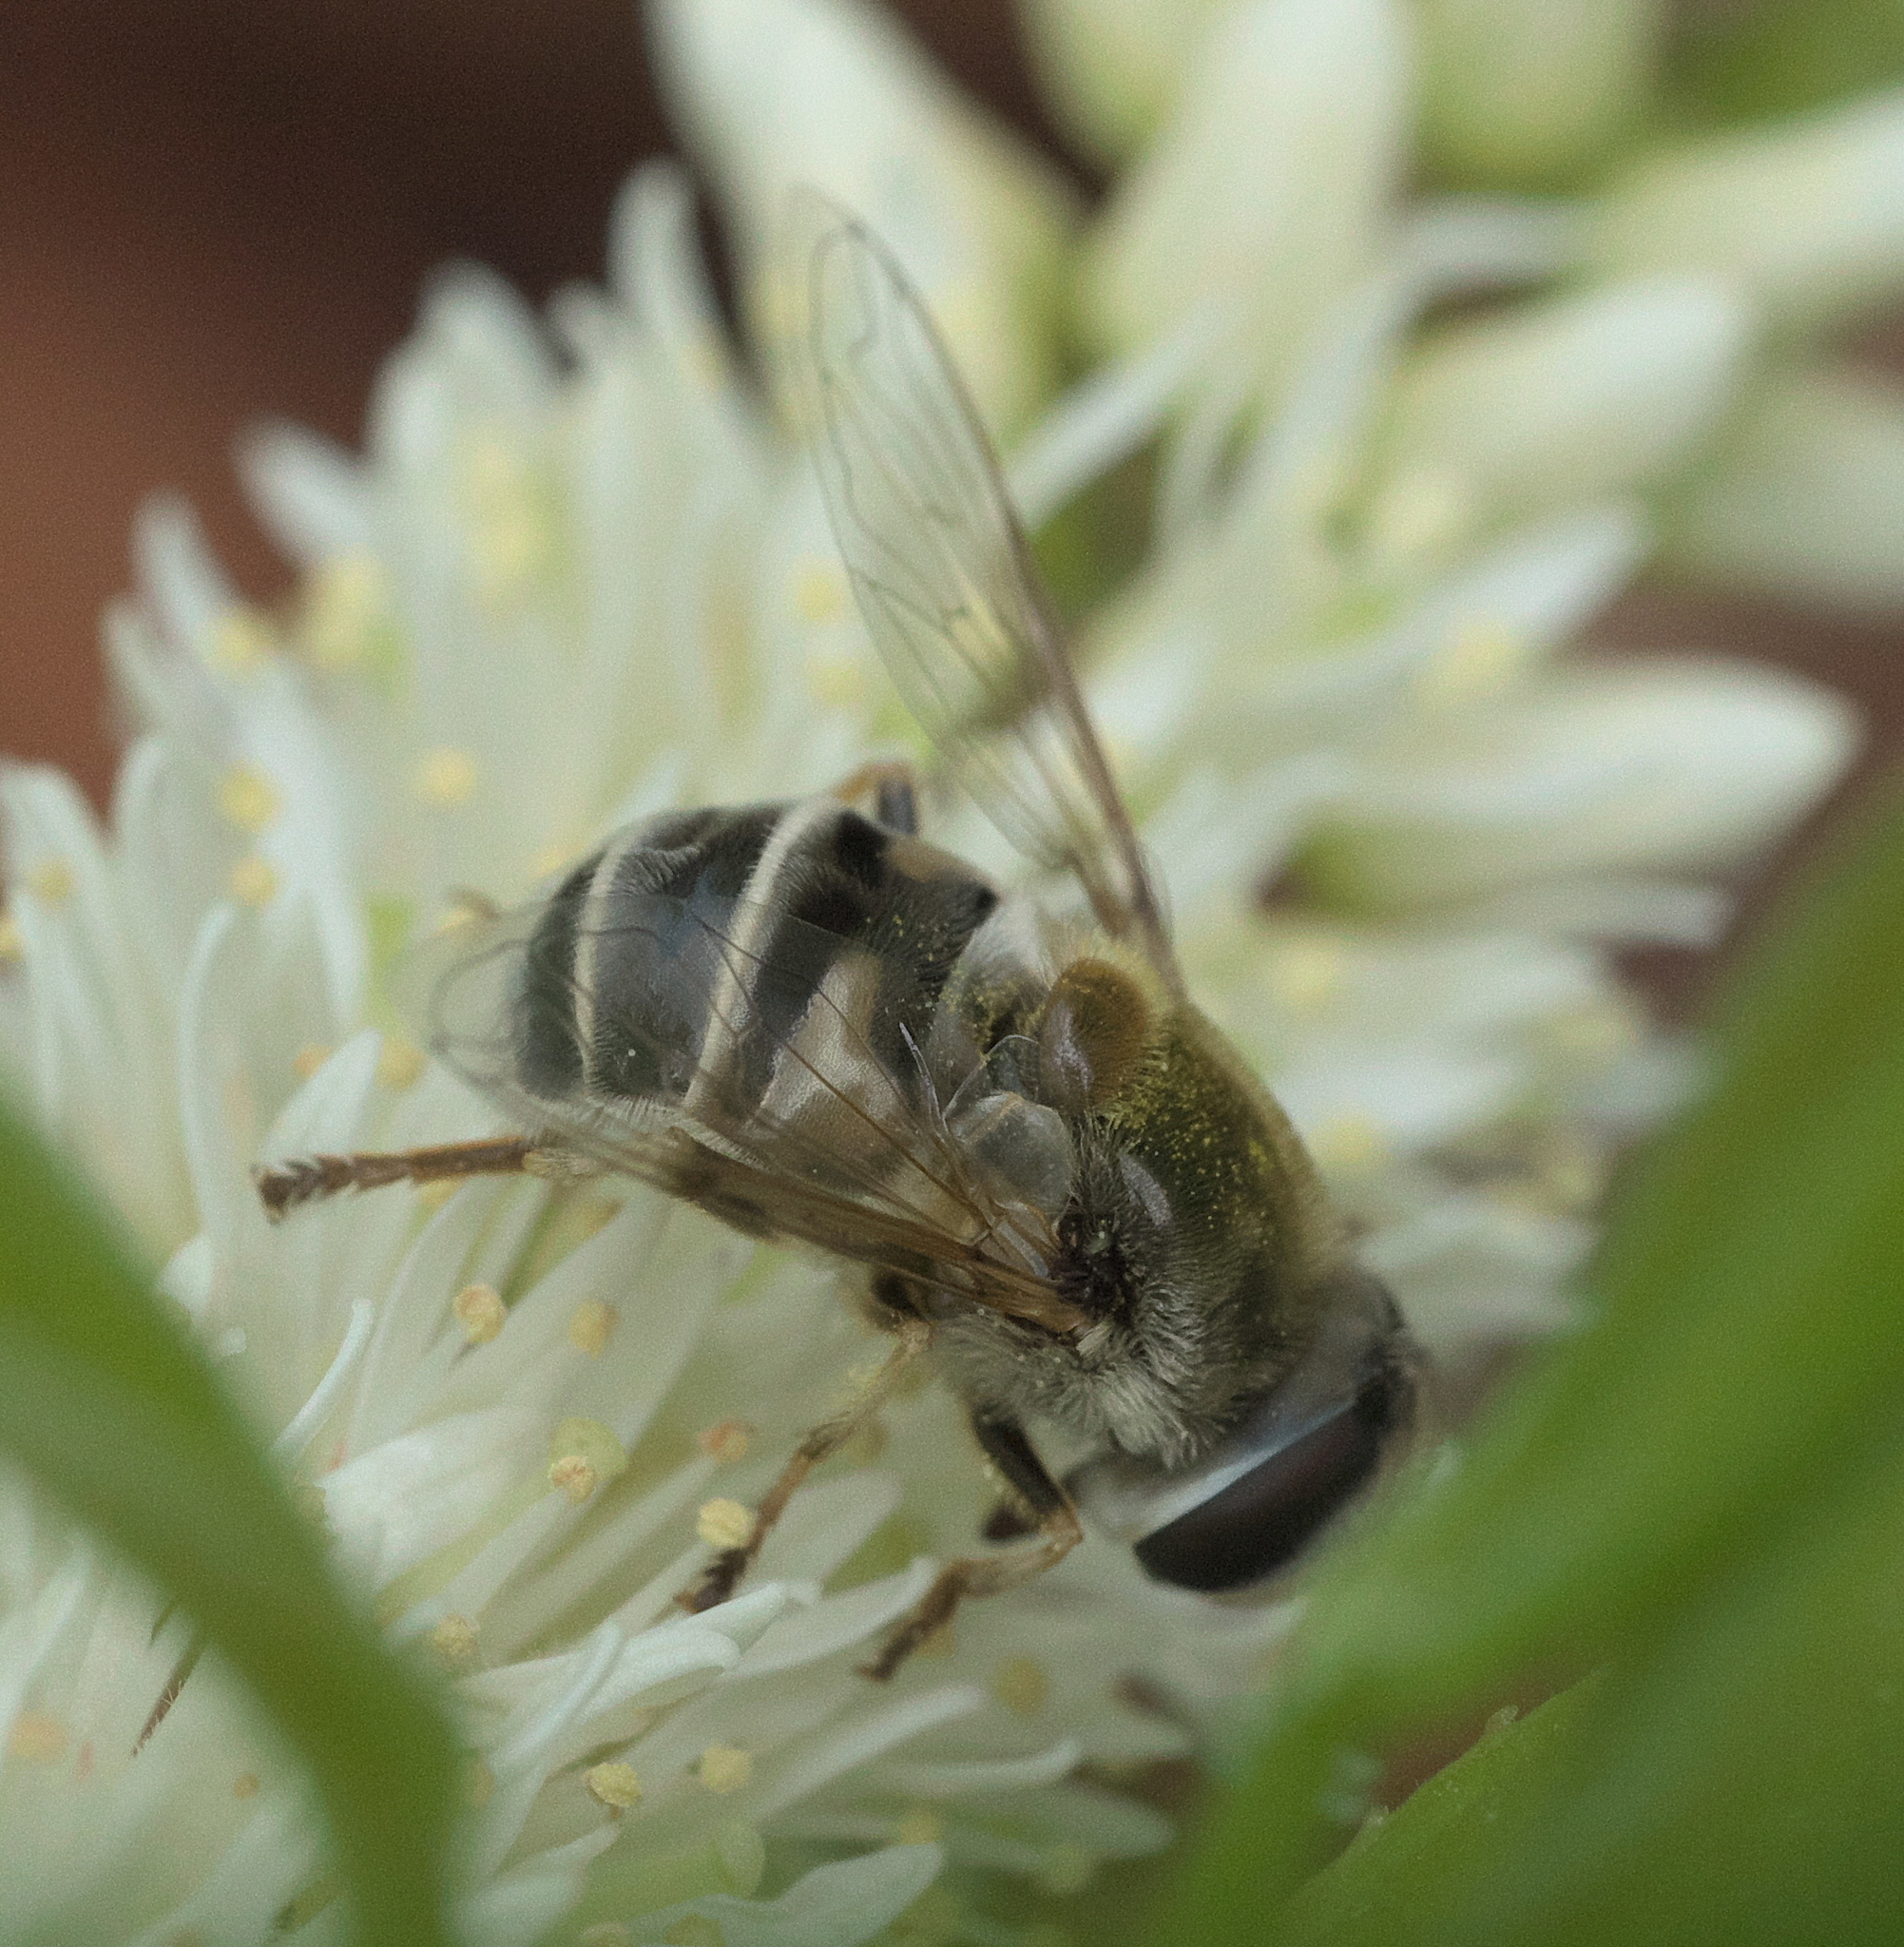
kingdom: Animalia
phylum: Arthropoda
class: Insecta
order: Diptera
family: Syrphidae
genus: Eristalis
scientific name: Eristalis stipator
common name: Yellow-shouldered drone fly
